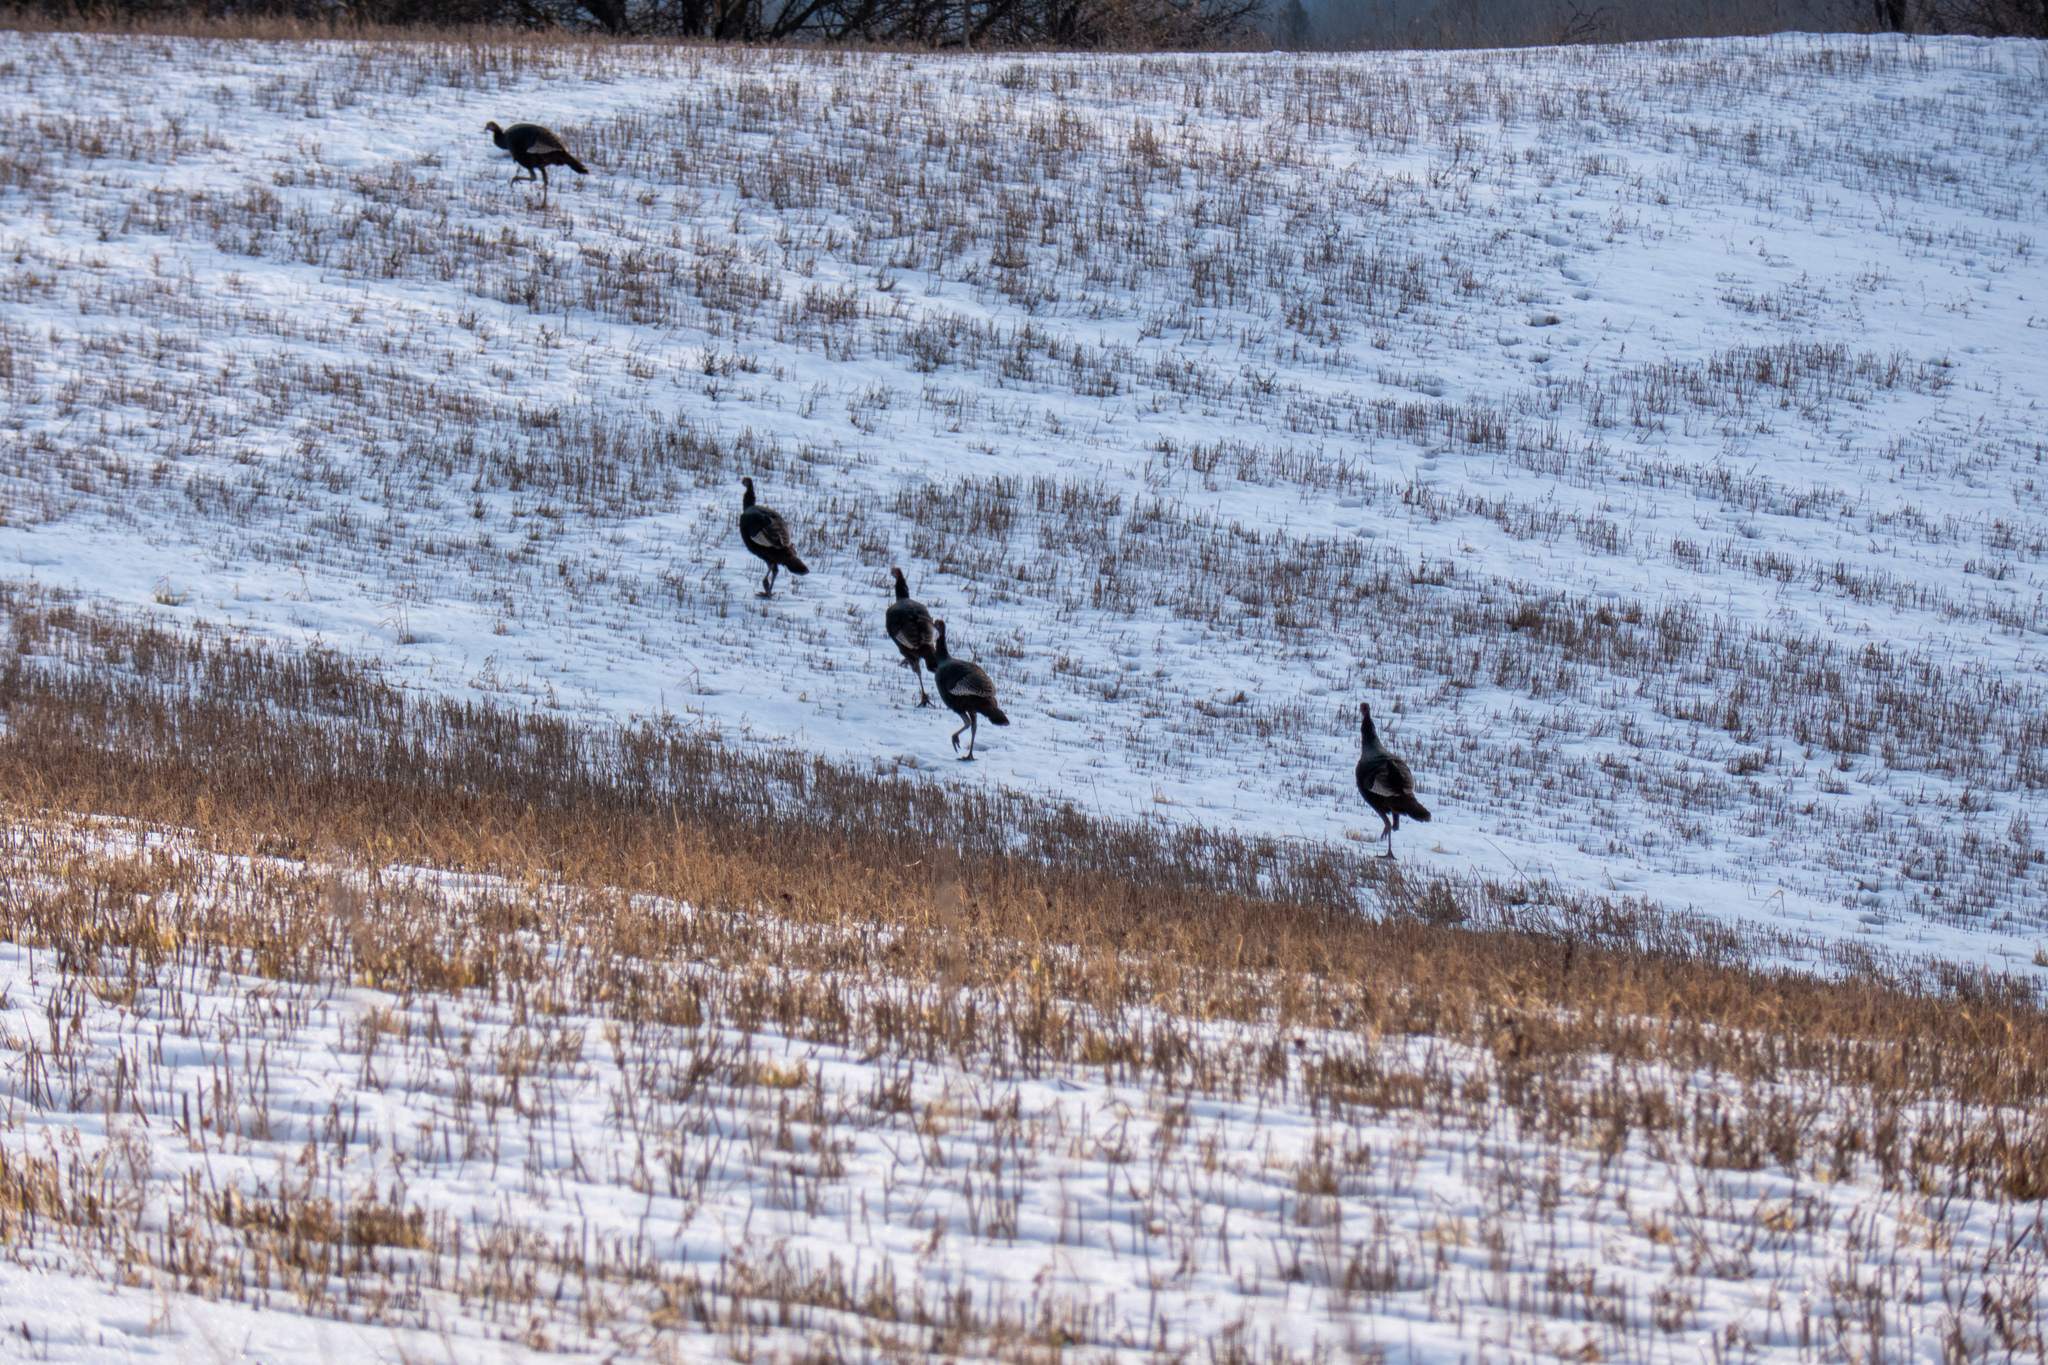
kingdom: Animalia
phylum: Chordata
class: Aves
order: Galliformes
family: Phasianidae
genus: Meleagris
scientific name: Meleagris gallopavo
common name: Wild turkey
